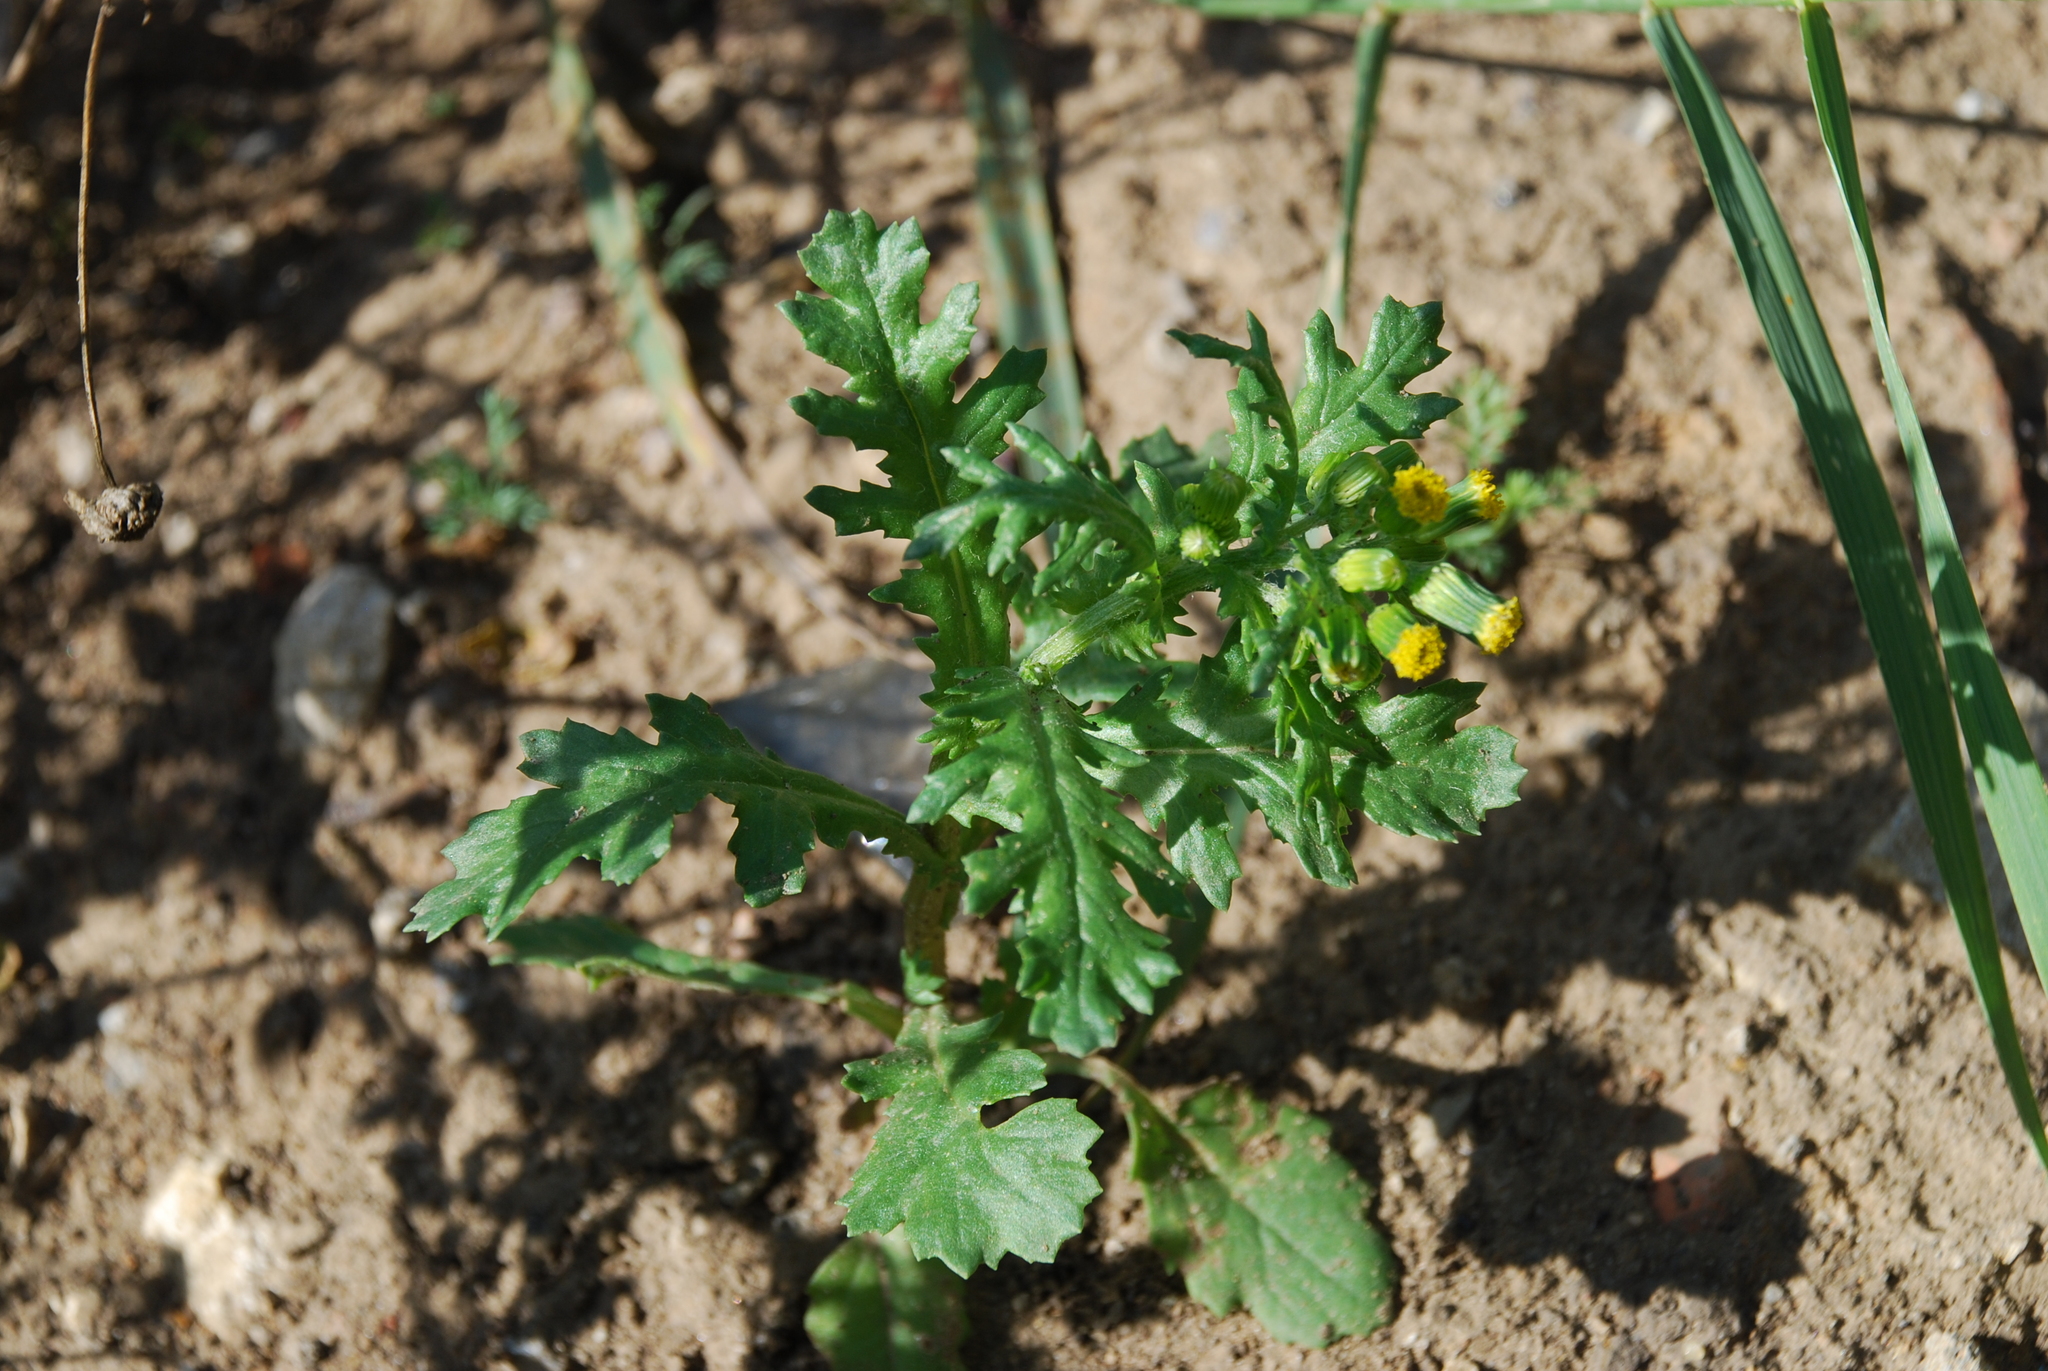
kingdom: Plantae
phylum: Tracheophyta
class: Magnoliopsida
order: Asterales
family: Asteraceae
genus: Senecio
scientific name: Senecio vulgaris
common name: Old-man-in-the-spring
